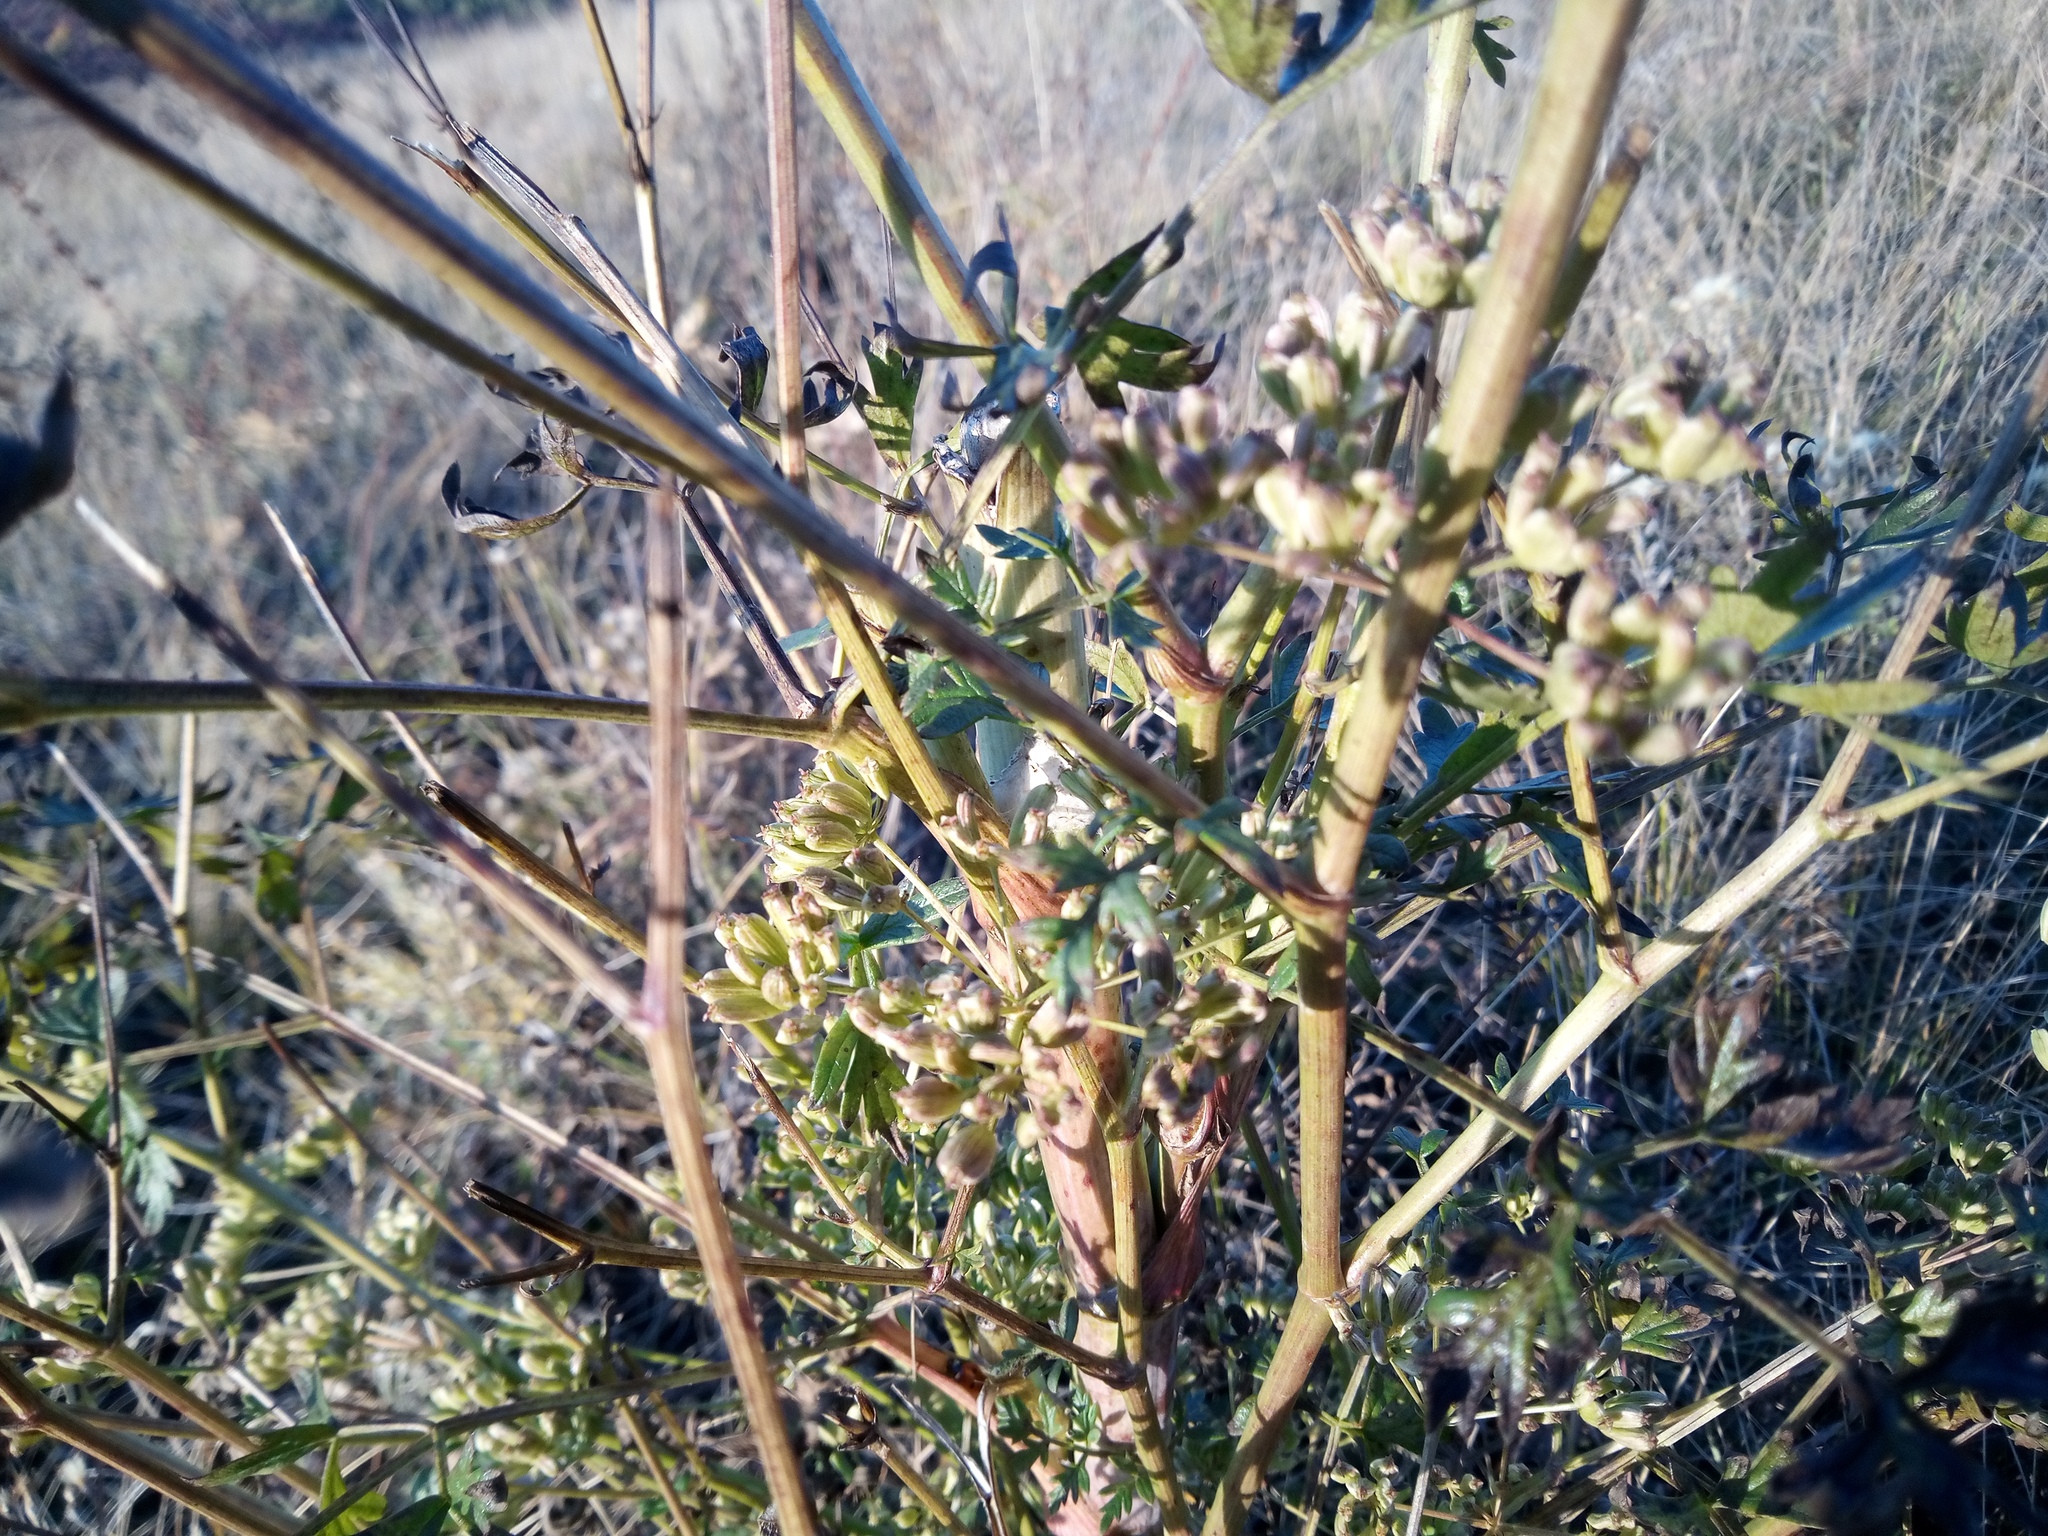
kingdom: Plantae
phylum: Tracheophyta
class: Magnoliopsida
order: Apiales
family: Apiaceae
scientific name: Apiaceae
